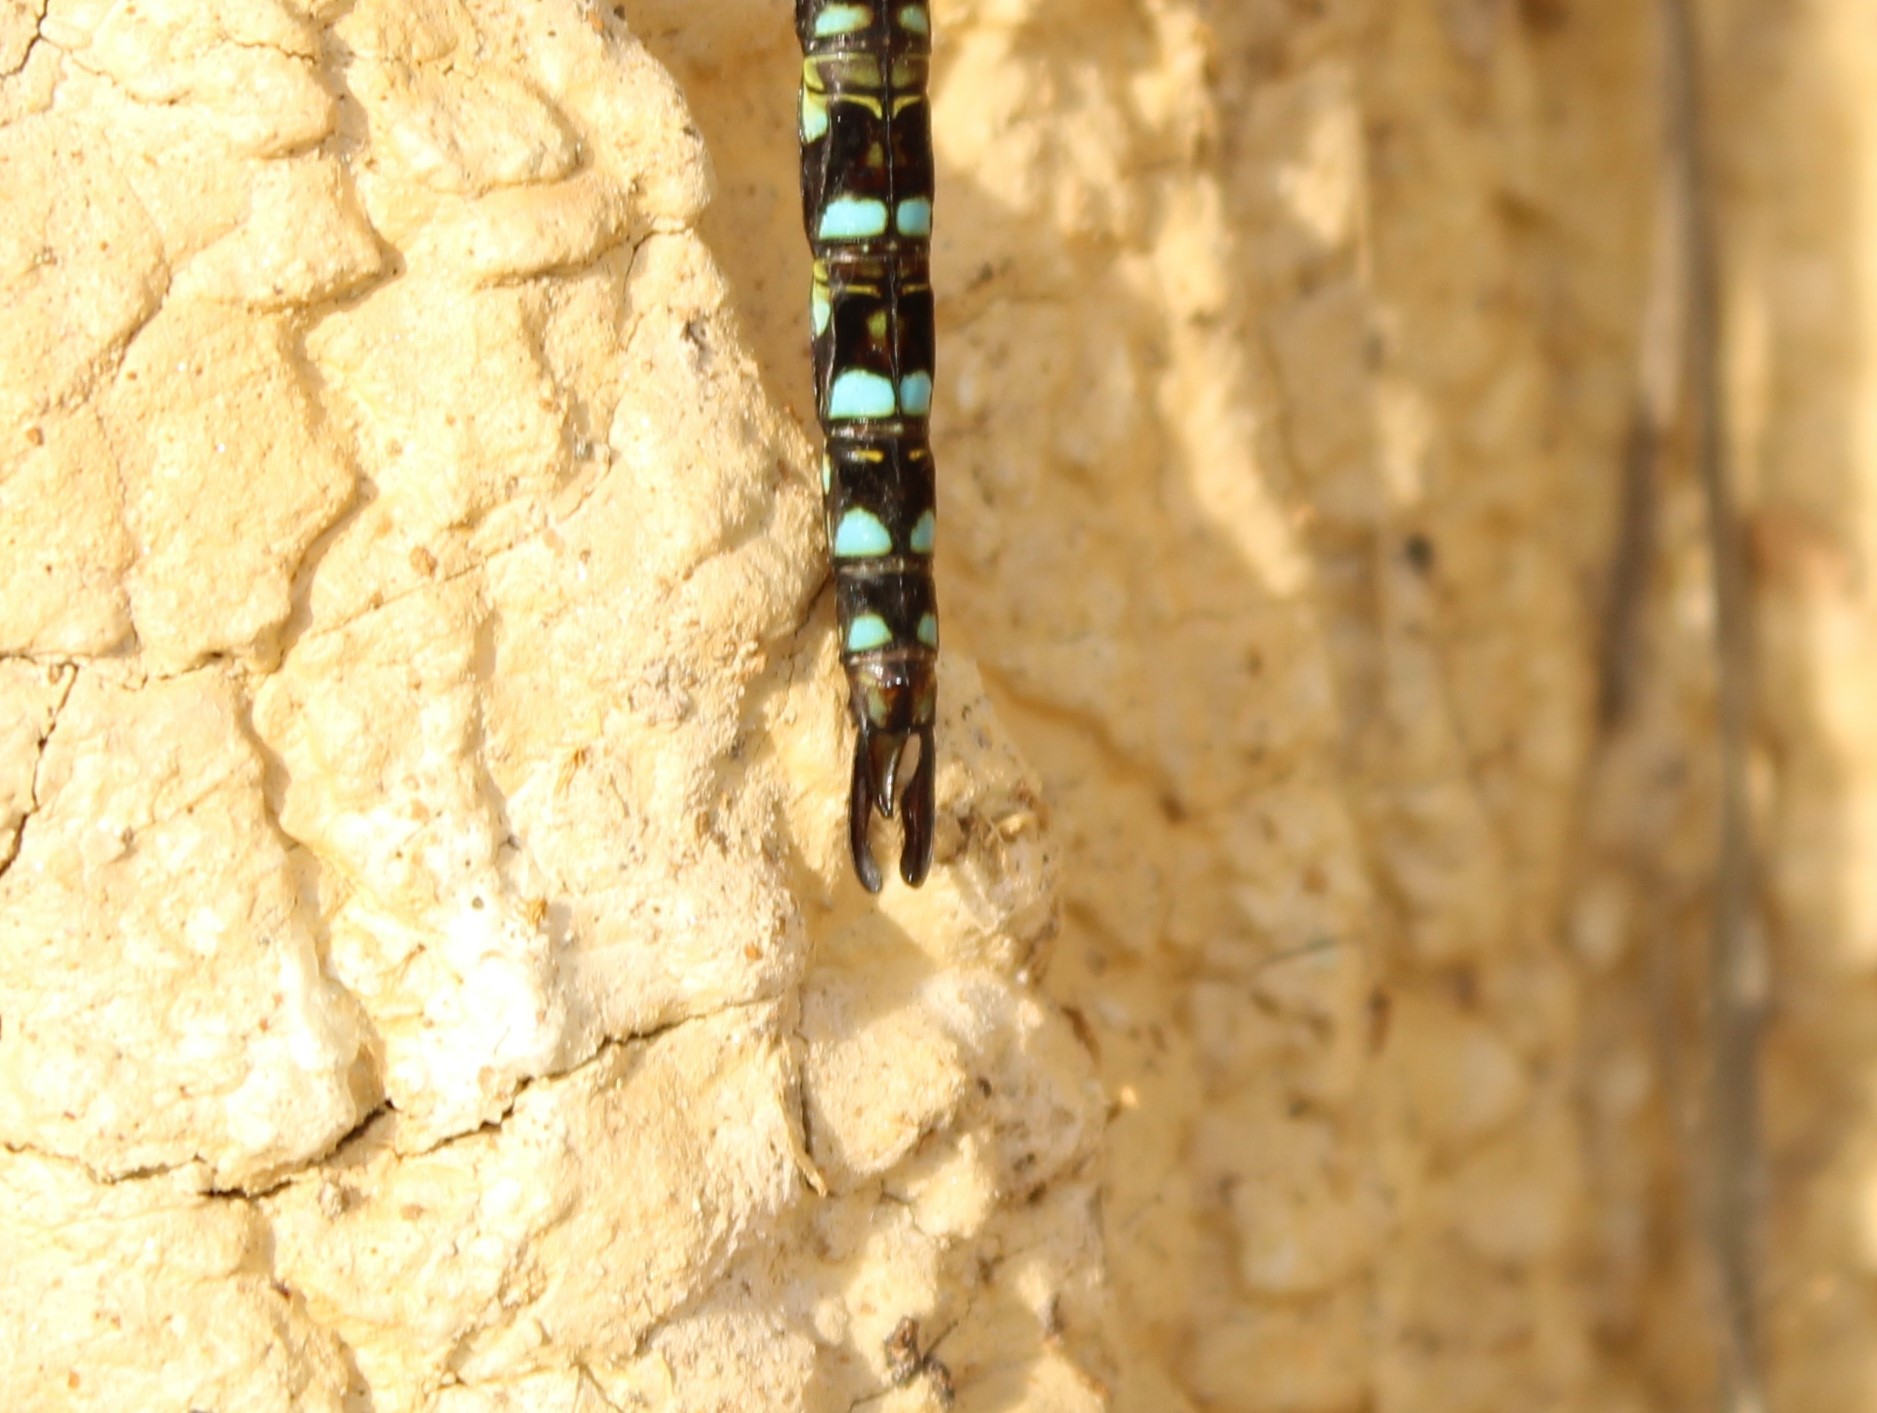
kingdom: Animalia
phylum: Arthropoda
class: Insecta
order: Odonata
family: Aeshnidae
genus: Rhionaeschna
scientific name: Rhionaeschna marchali
